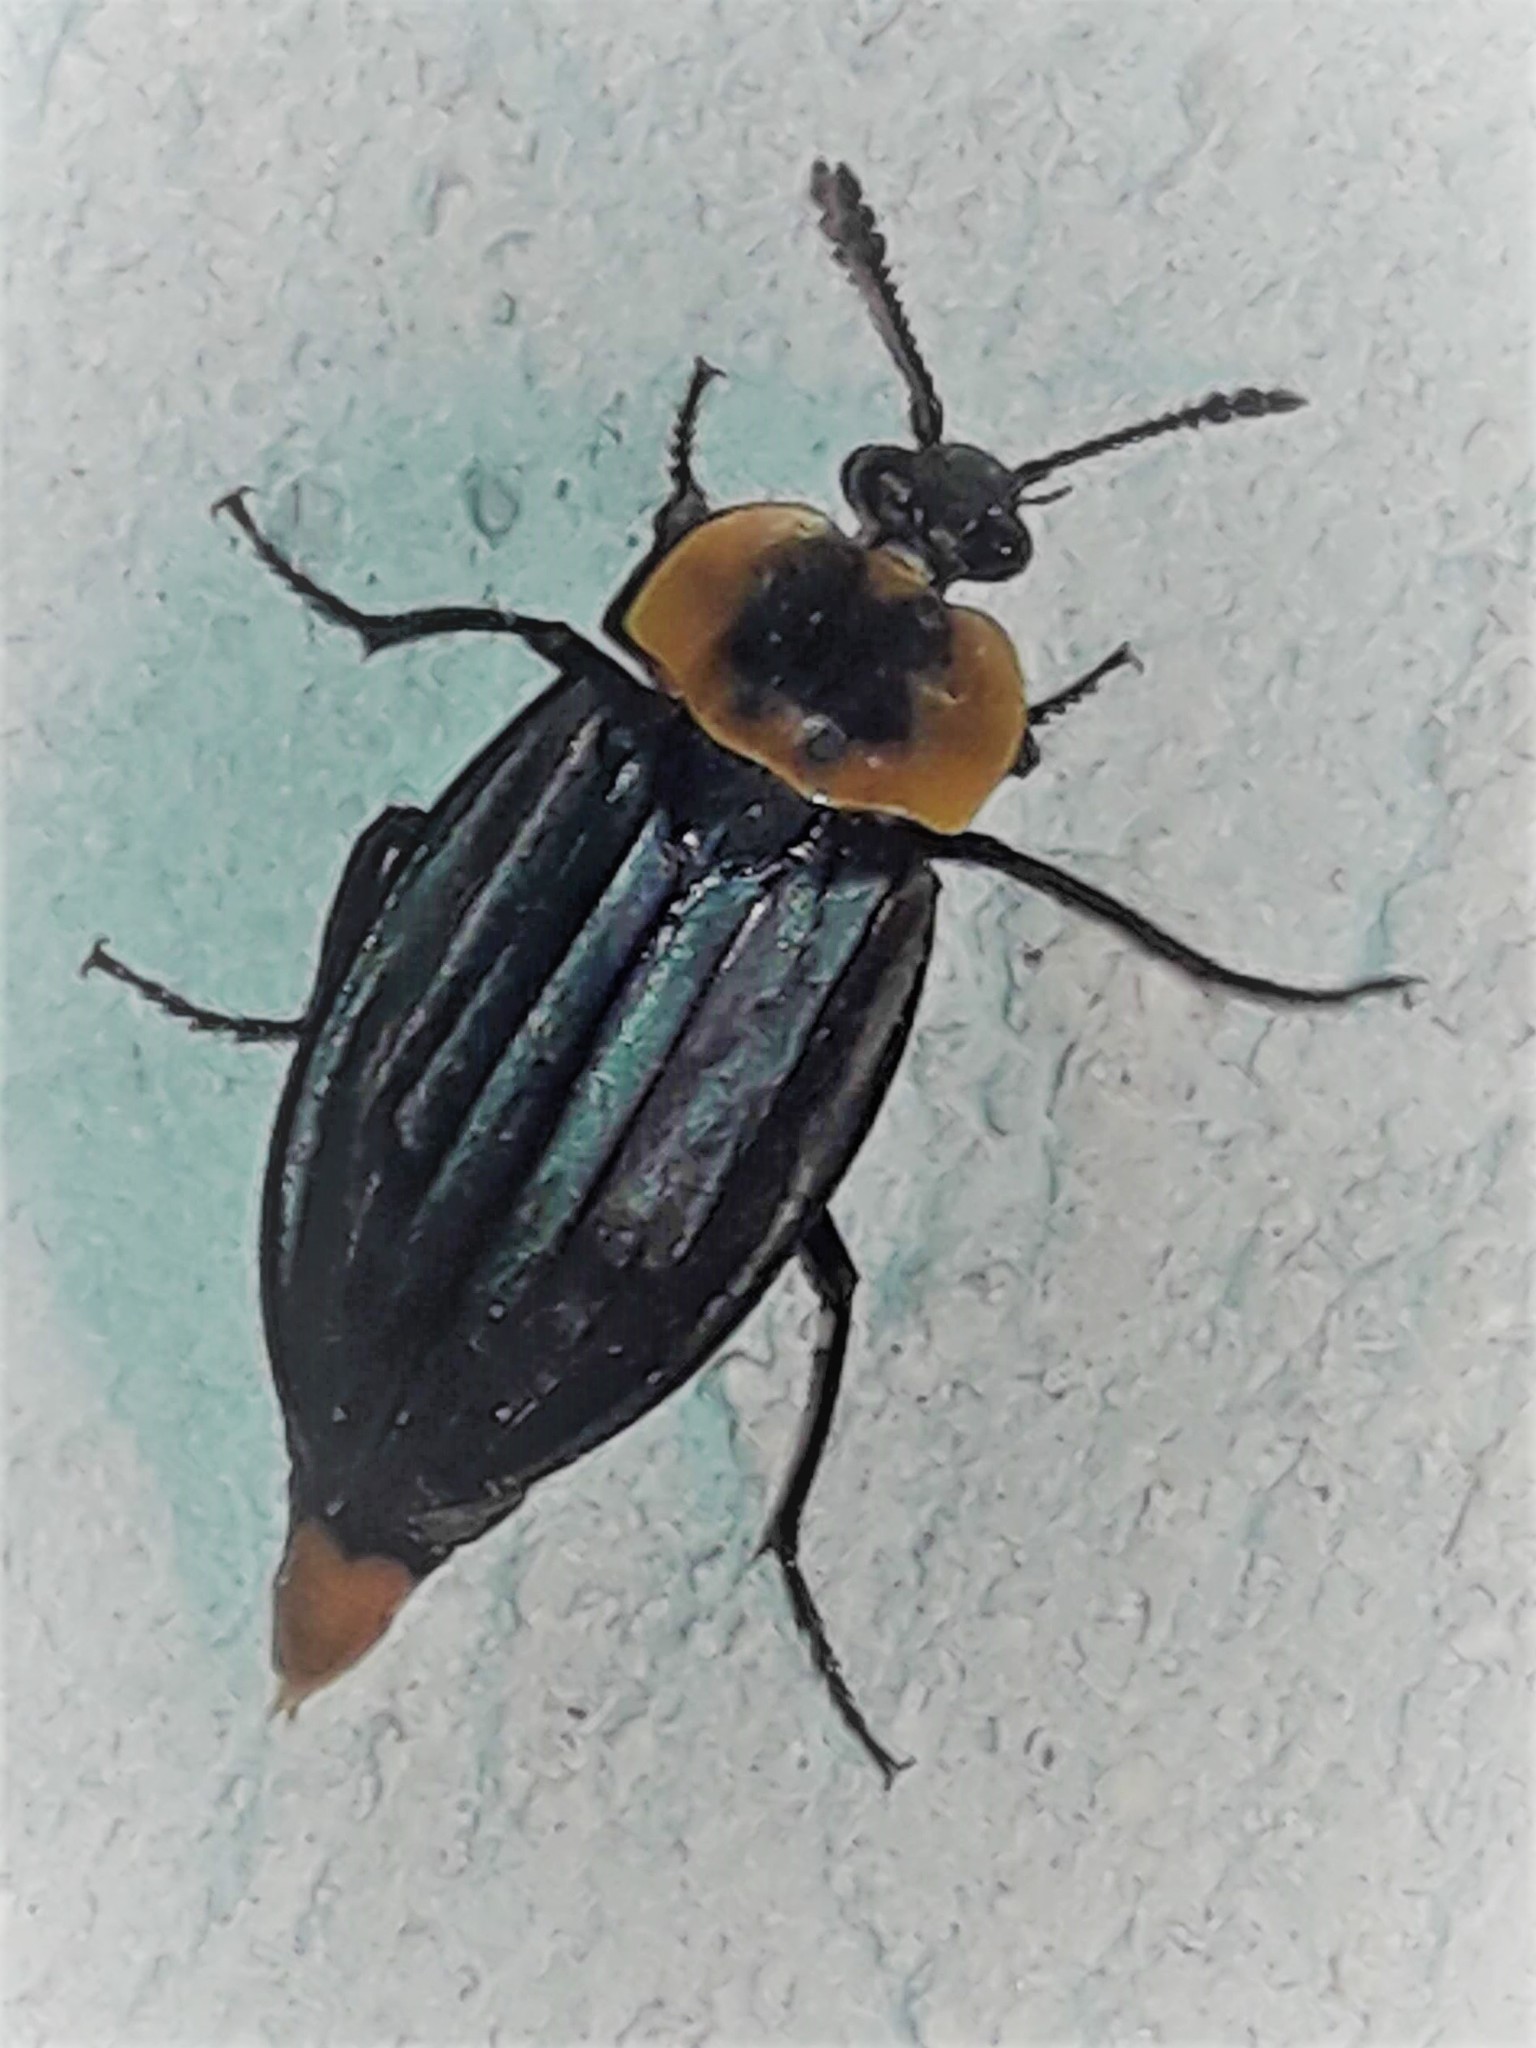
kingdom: Animalia
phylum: Arthropoda
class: Insecta
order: Coleoptera
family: Staphylinidae
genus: Oxelytrum
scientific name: Oxelytrum discicolle
